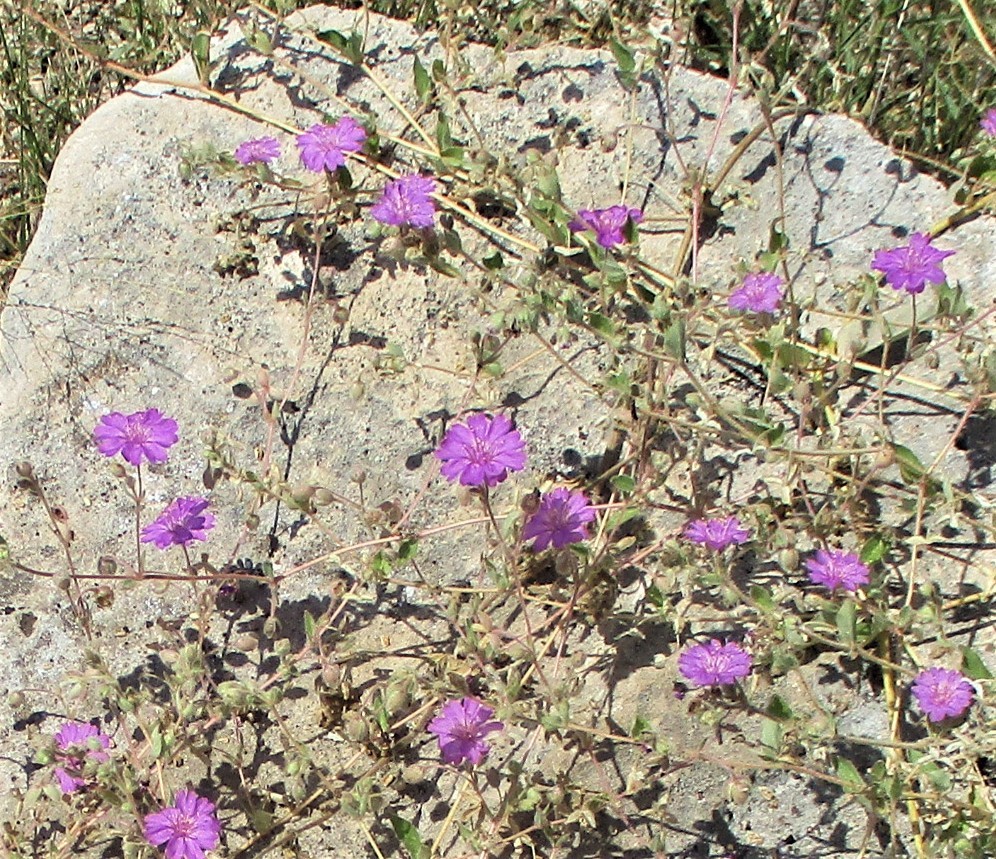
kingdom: Plantae
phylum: Tracheophyta
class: Magnoliopsida
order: Caryophyllales
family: Nyctaginaceae
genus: Allionia
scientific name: Allionia incarnata
